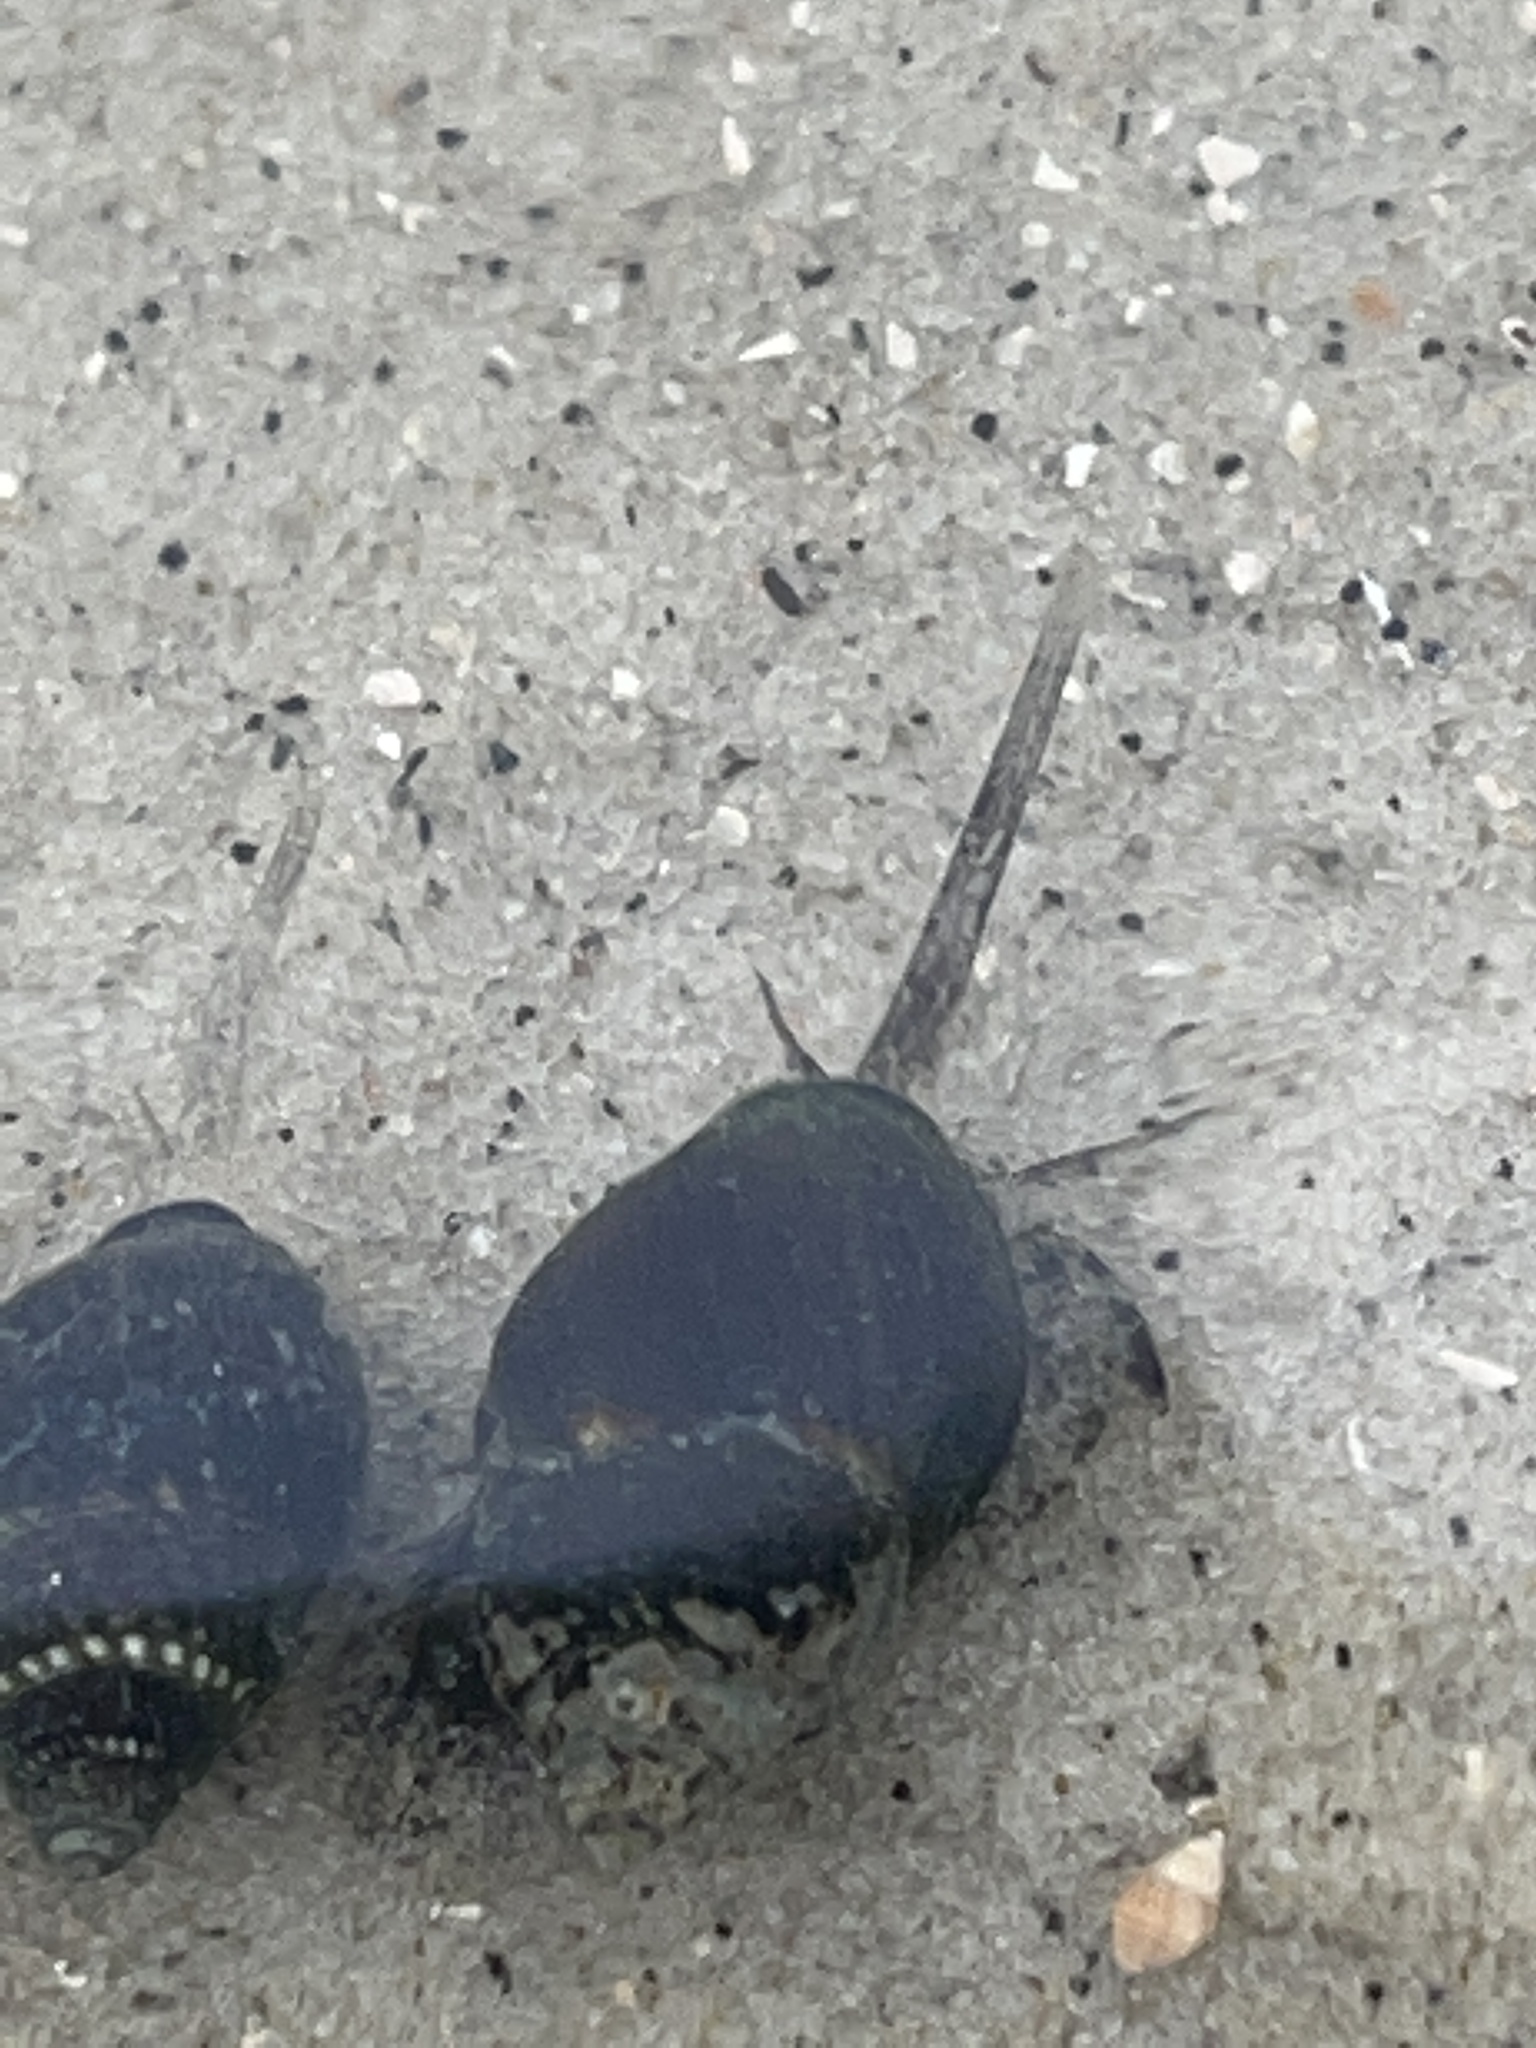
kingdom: Animalia
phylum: Mollusca
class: Gastropoda
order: Neogastropoda
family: Nassariidae
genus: Ilyanassa
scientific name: Ilyanassa obsoleta
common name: Eastern mudsnail
